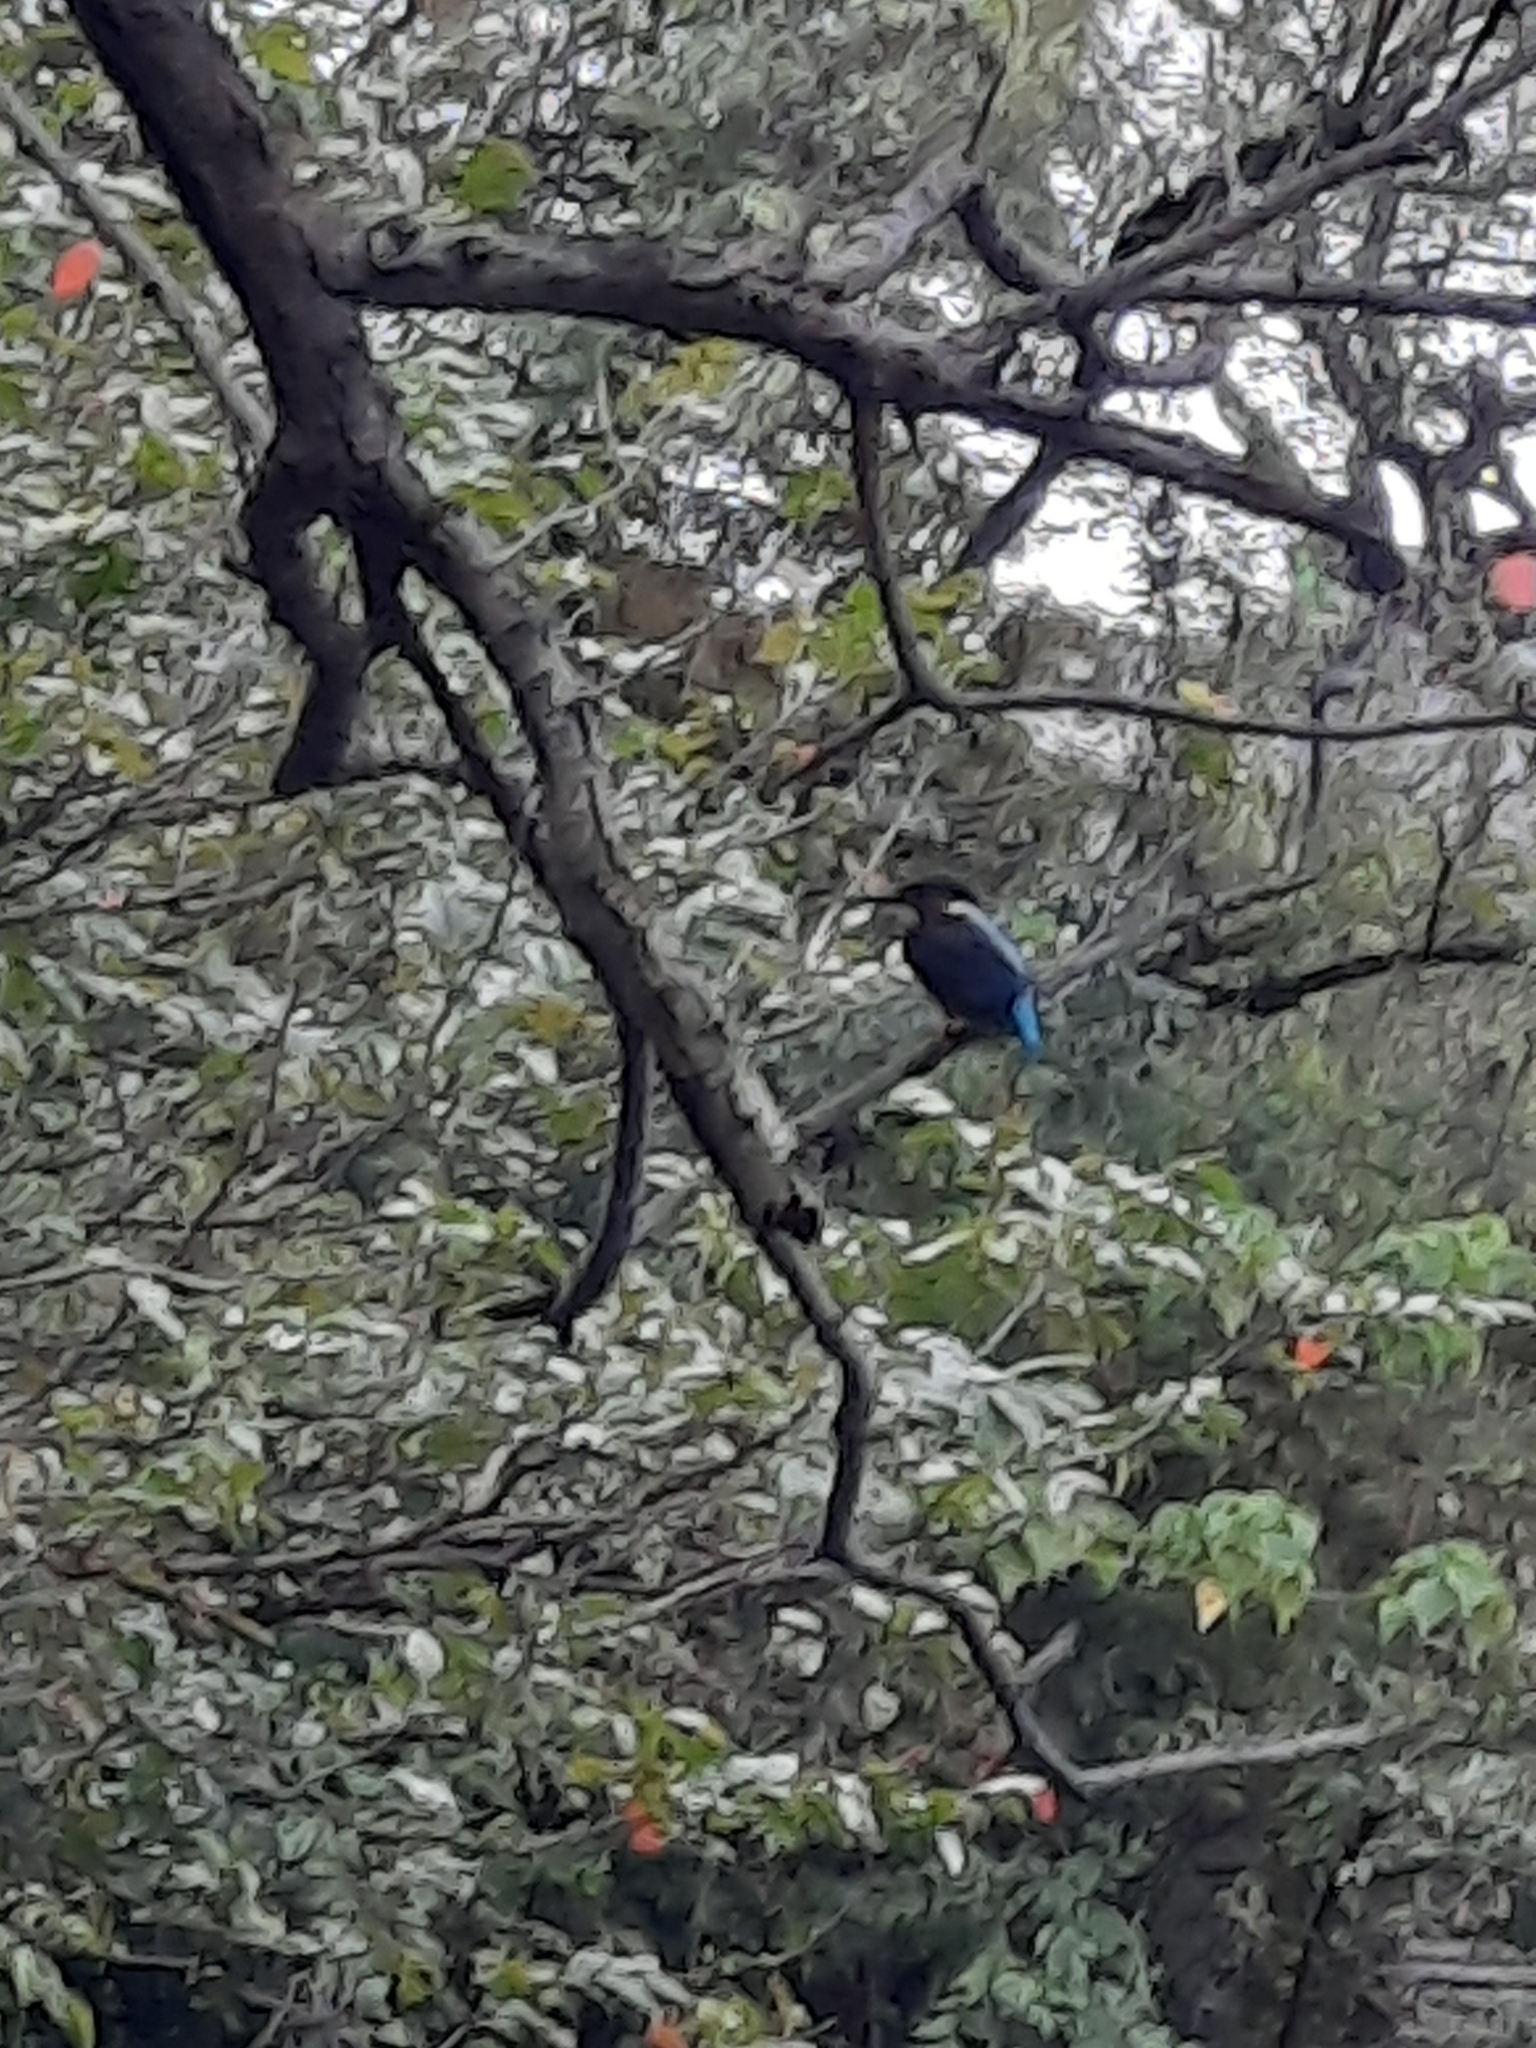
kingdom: Animalia
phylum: Chordata
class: Aves
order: Coraciiformes
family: Alcedinidae
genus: Alcedo
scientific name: Alcedo atthis
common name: Common kingfisher
